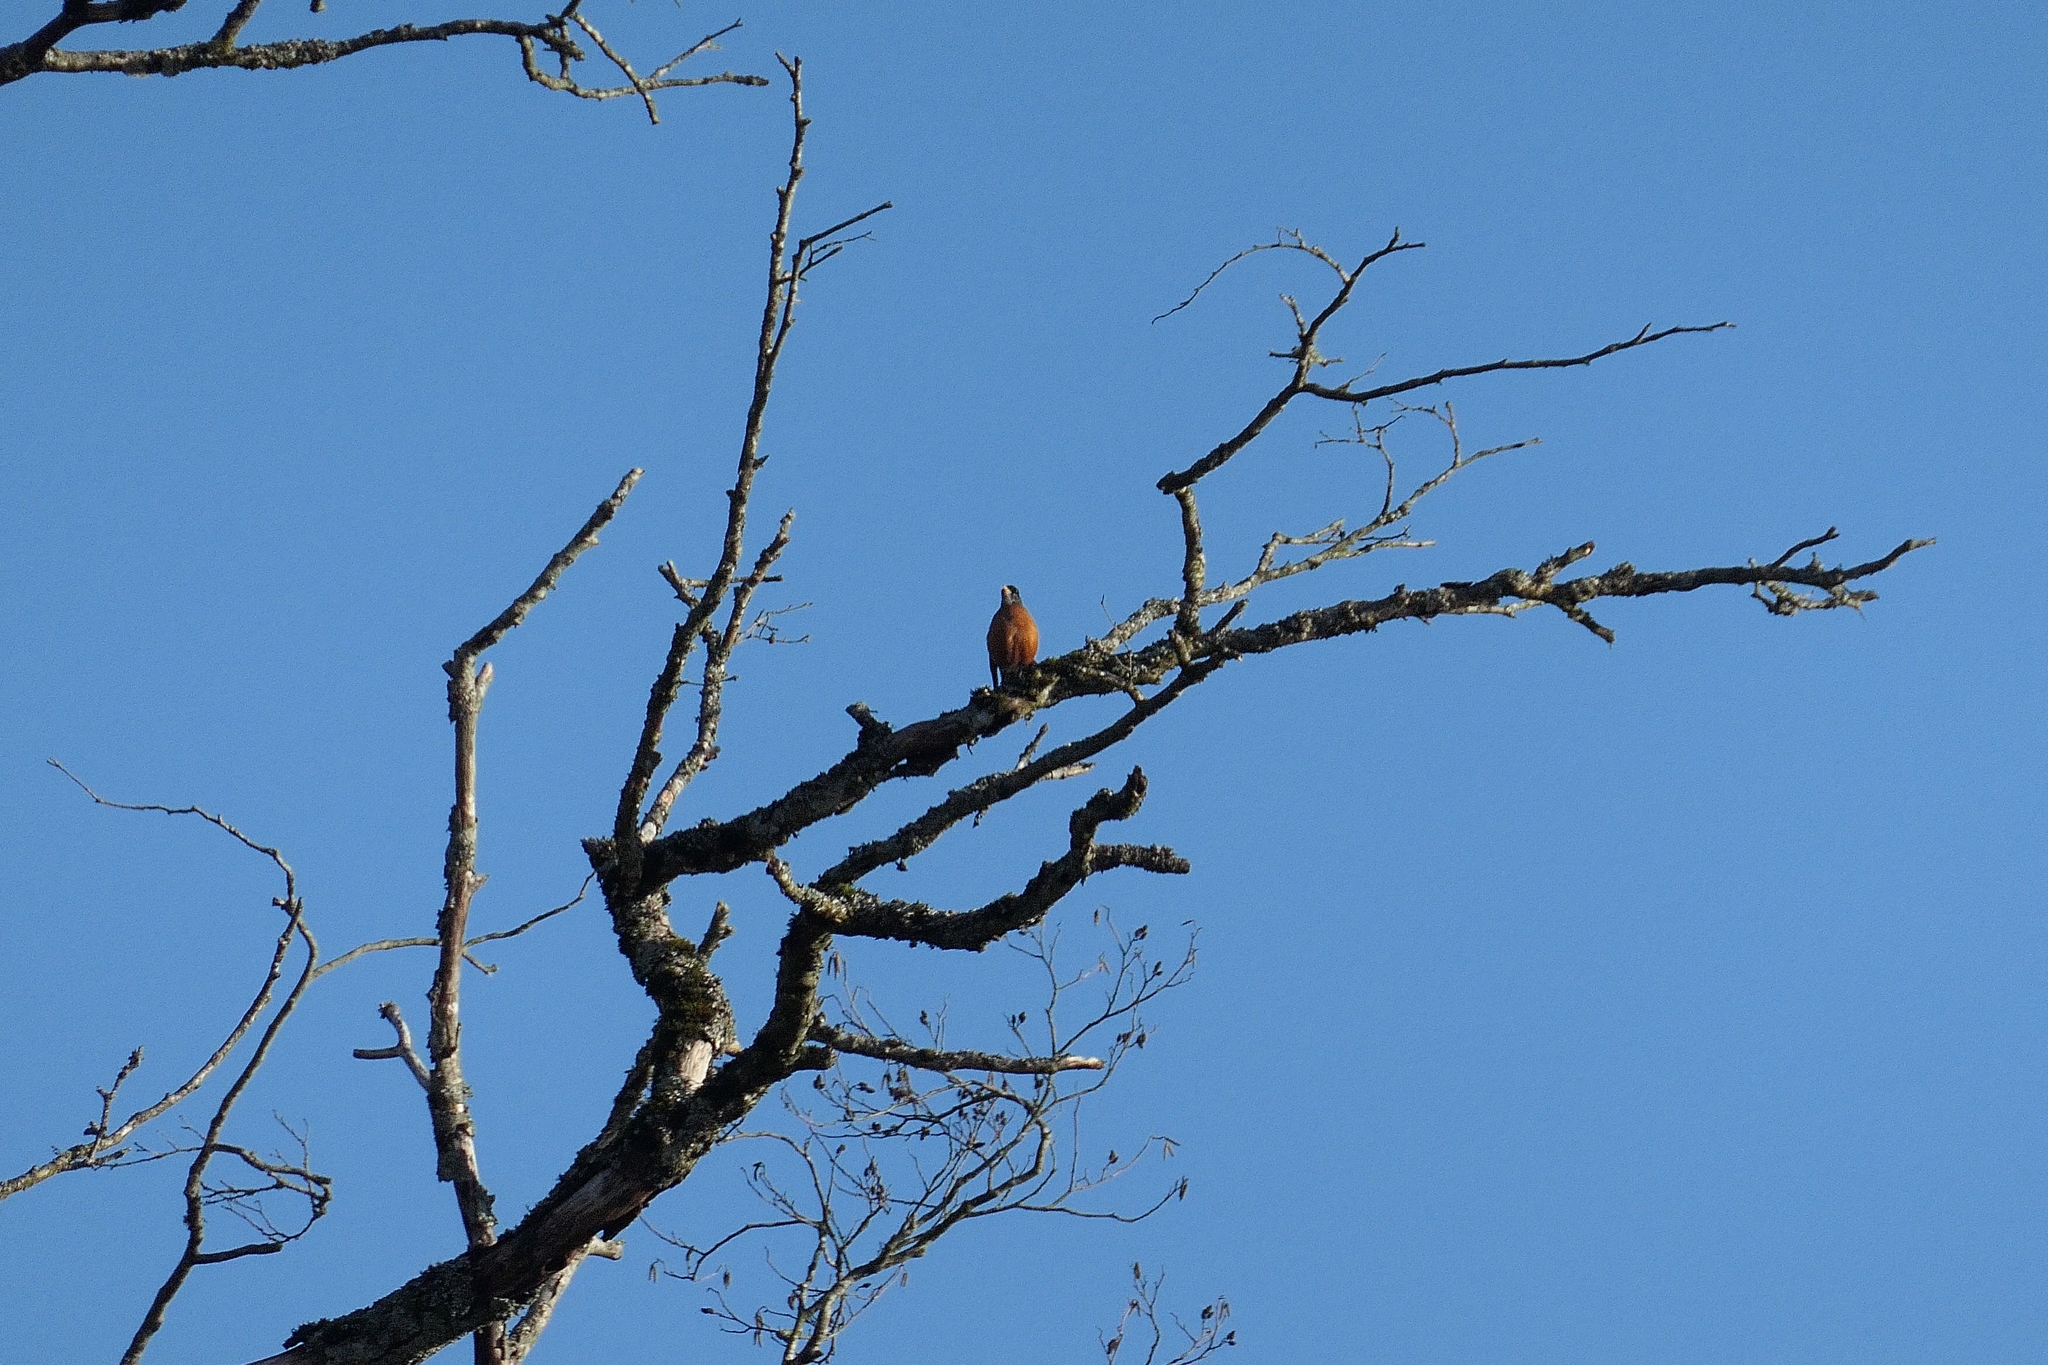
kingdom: Animalia
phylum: Chordata
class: Aves
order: Passeriformes
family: Turdidae
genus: Turdus
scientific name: Turdus migratorius
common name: American robin
